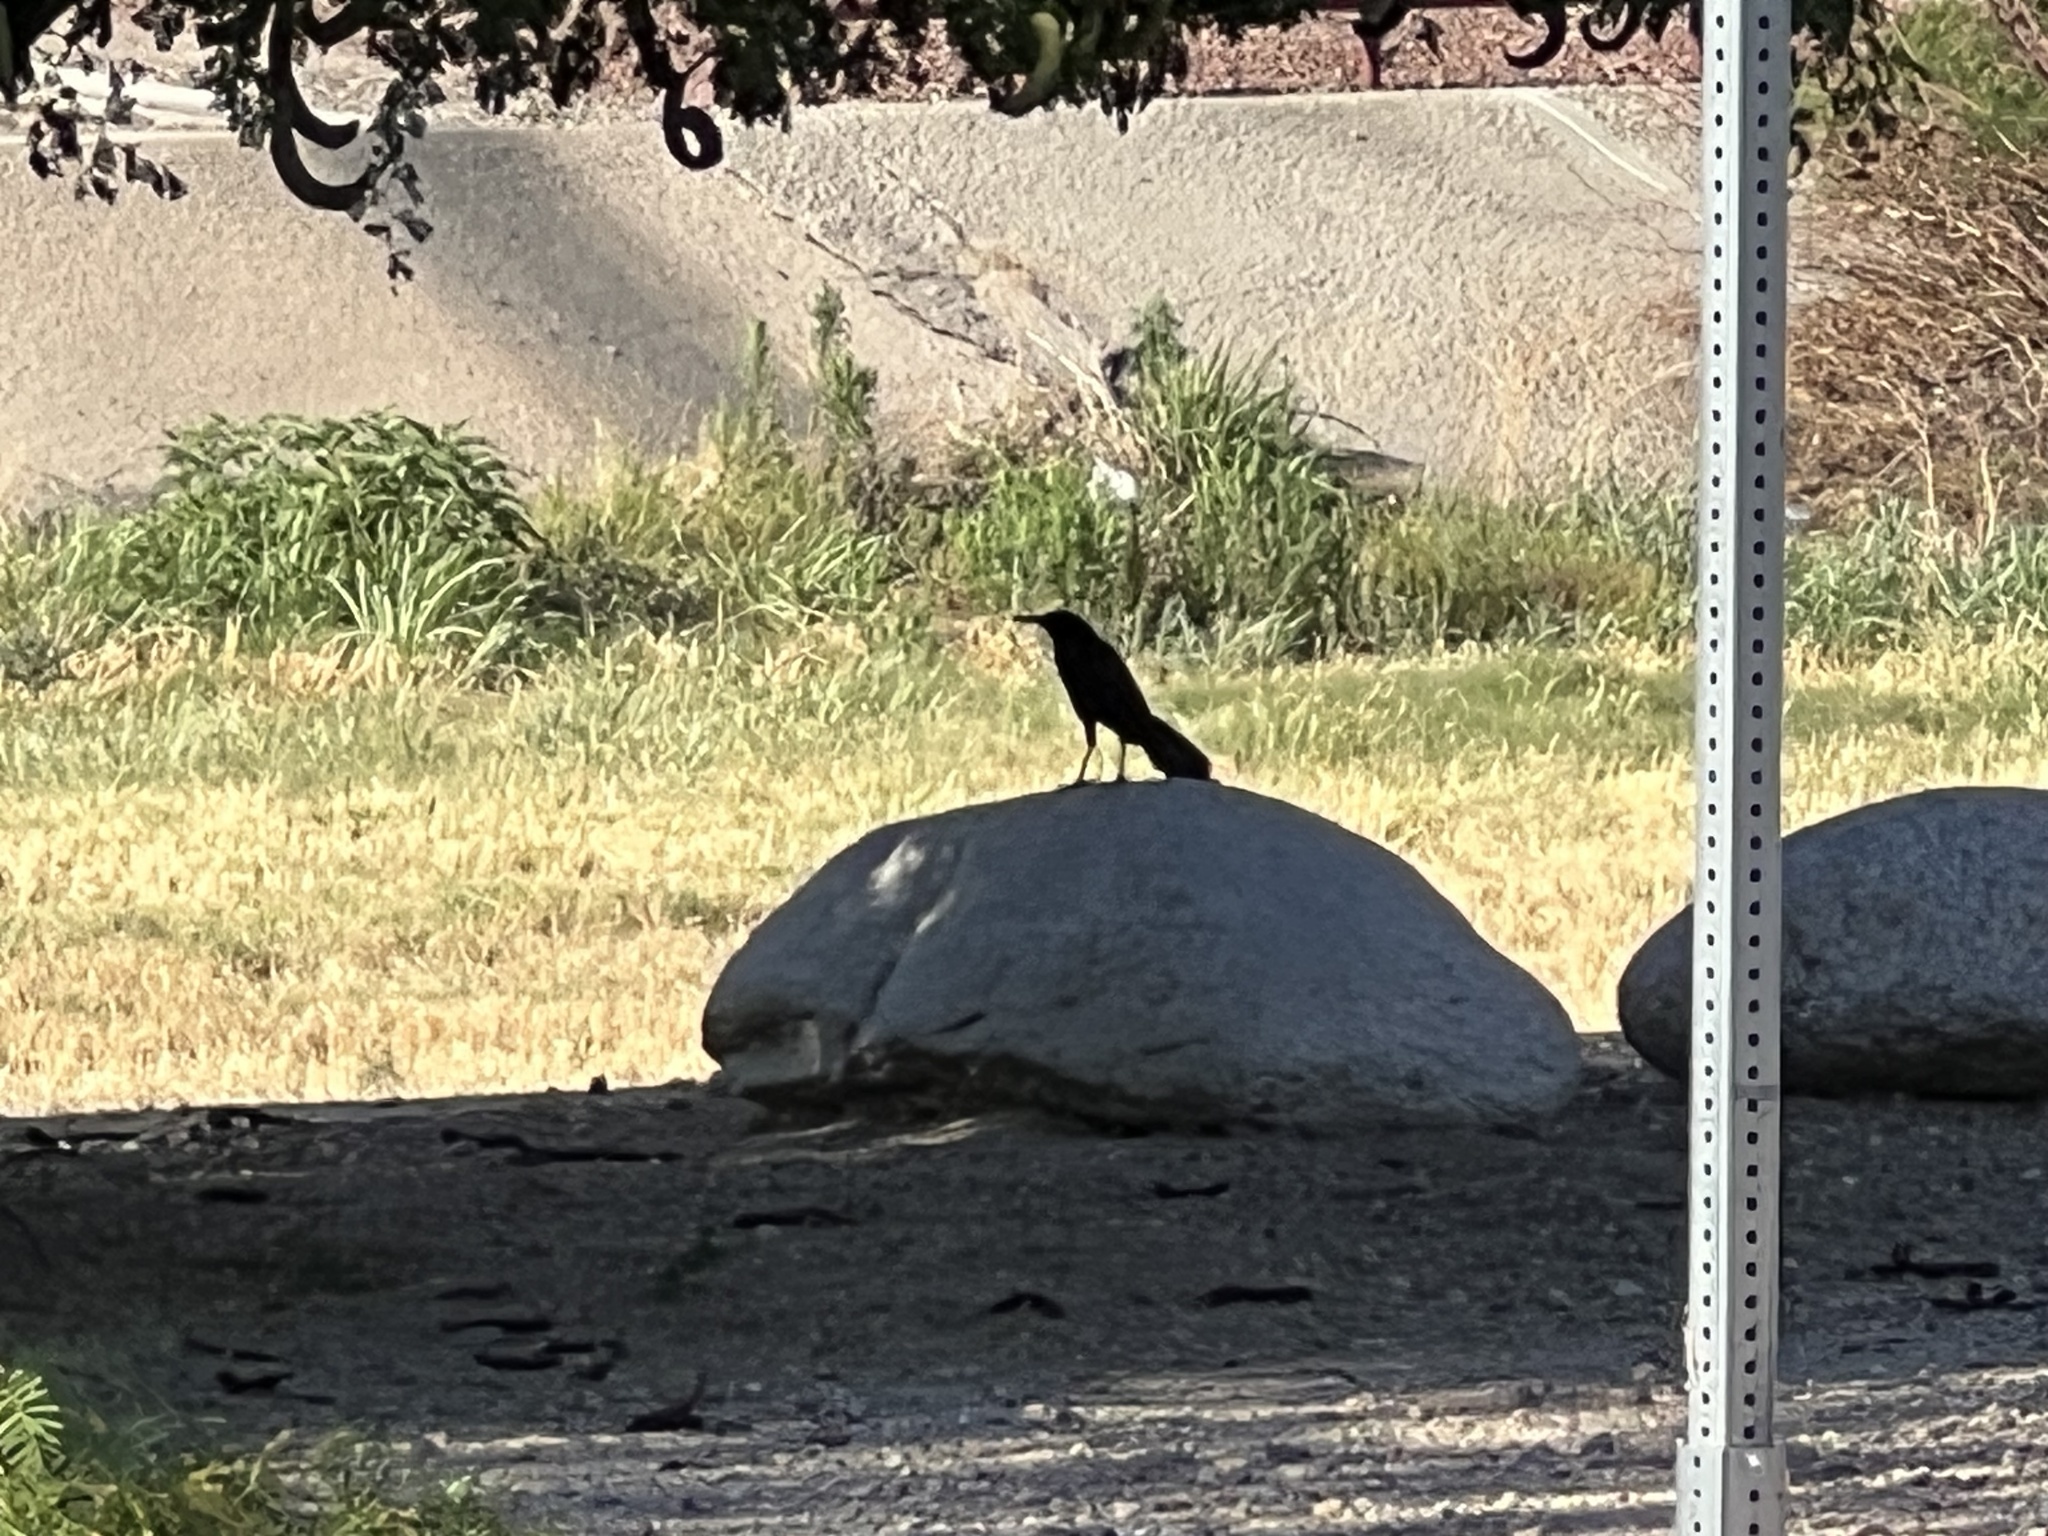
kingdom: Animalia
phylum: Chordata
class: Aves
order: Passeriformes
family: Icteridae
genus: Quiscalus
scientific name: Quiscalus mexicanus
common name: Great-tailed grackle
